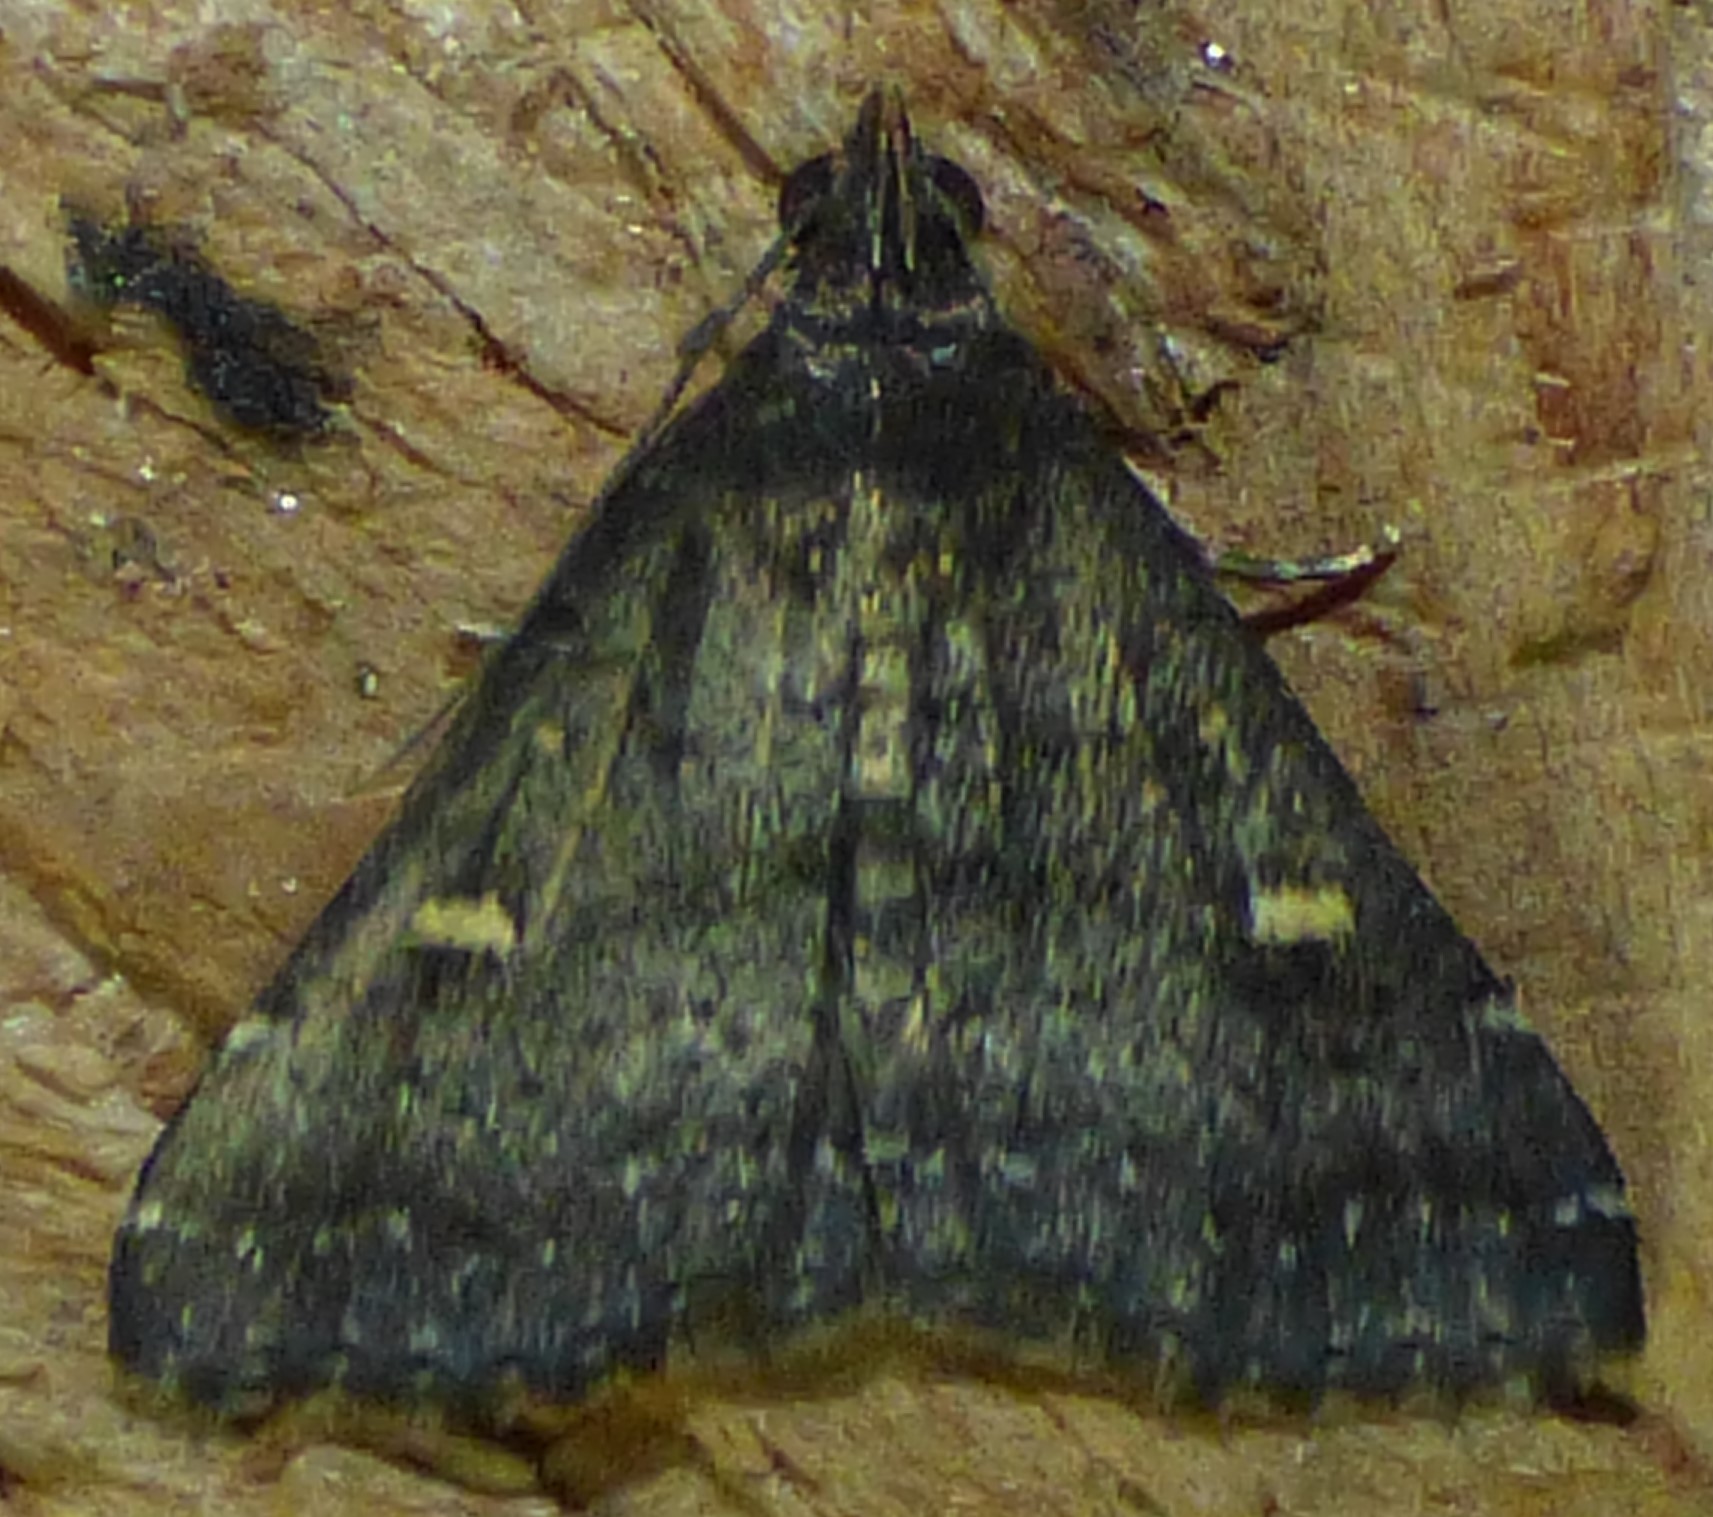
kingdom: Animalia
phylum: Arthropoda
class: Insecta
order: Lepidoptera
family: Erebidae
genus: Tetanolita
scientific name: Tetanolita mynesalis
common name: Smoky tetanolita moth
